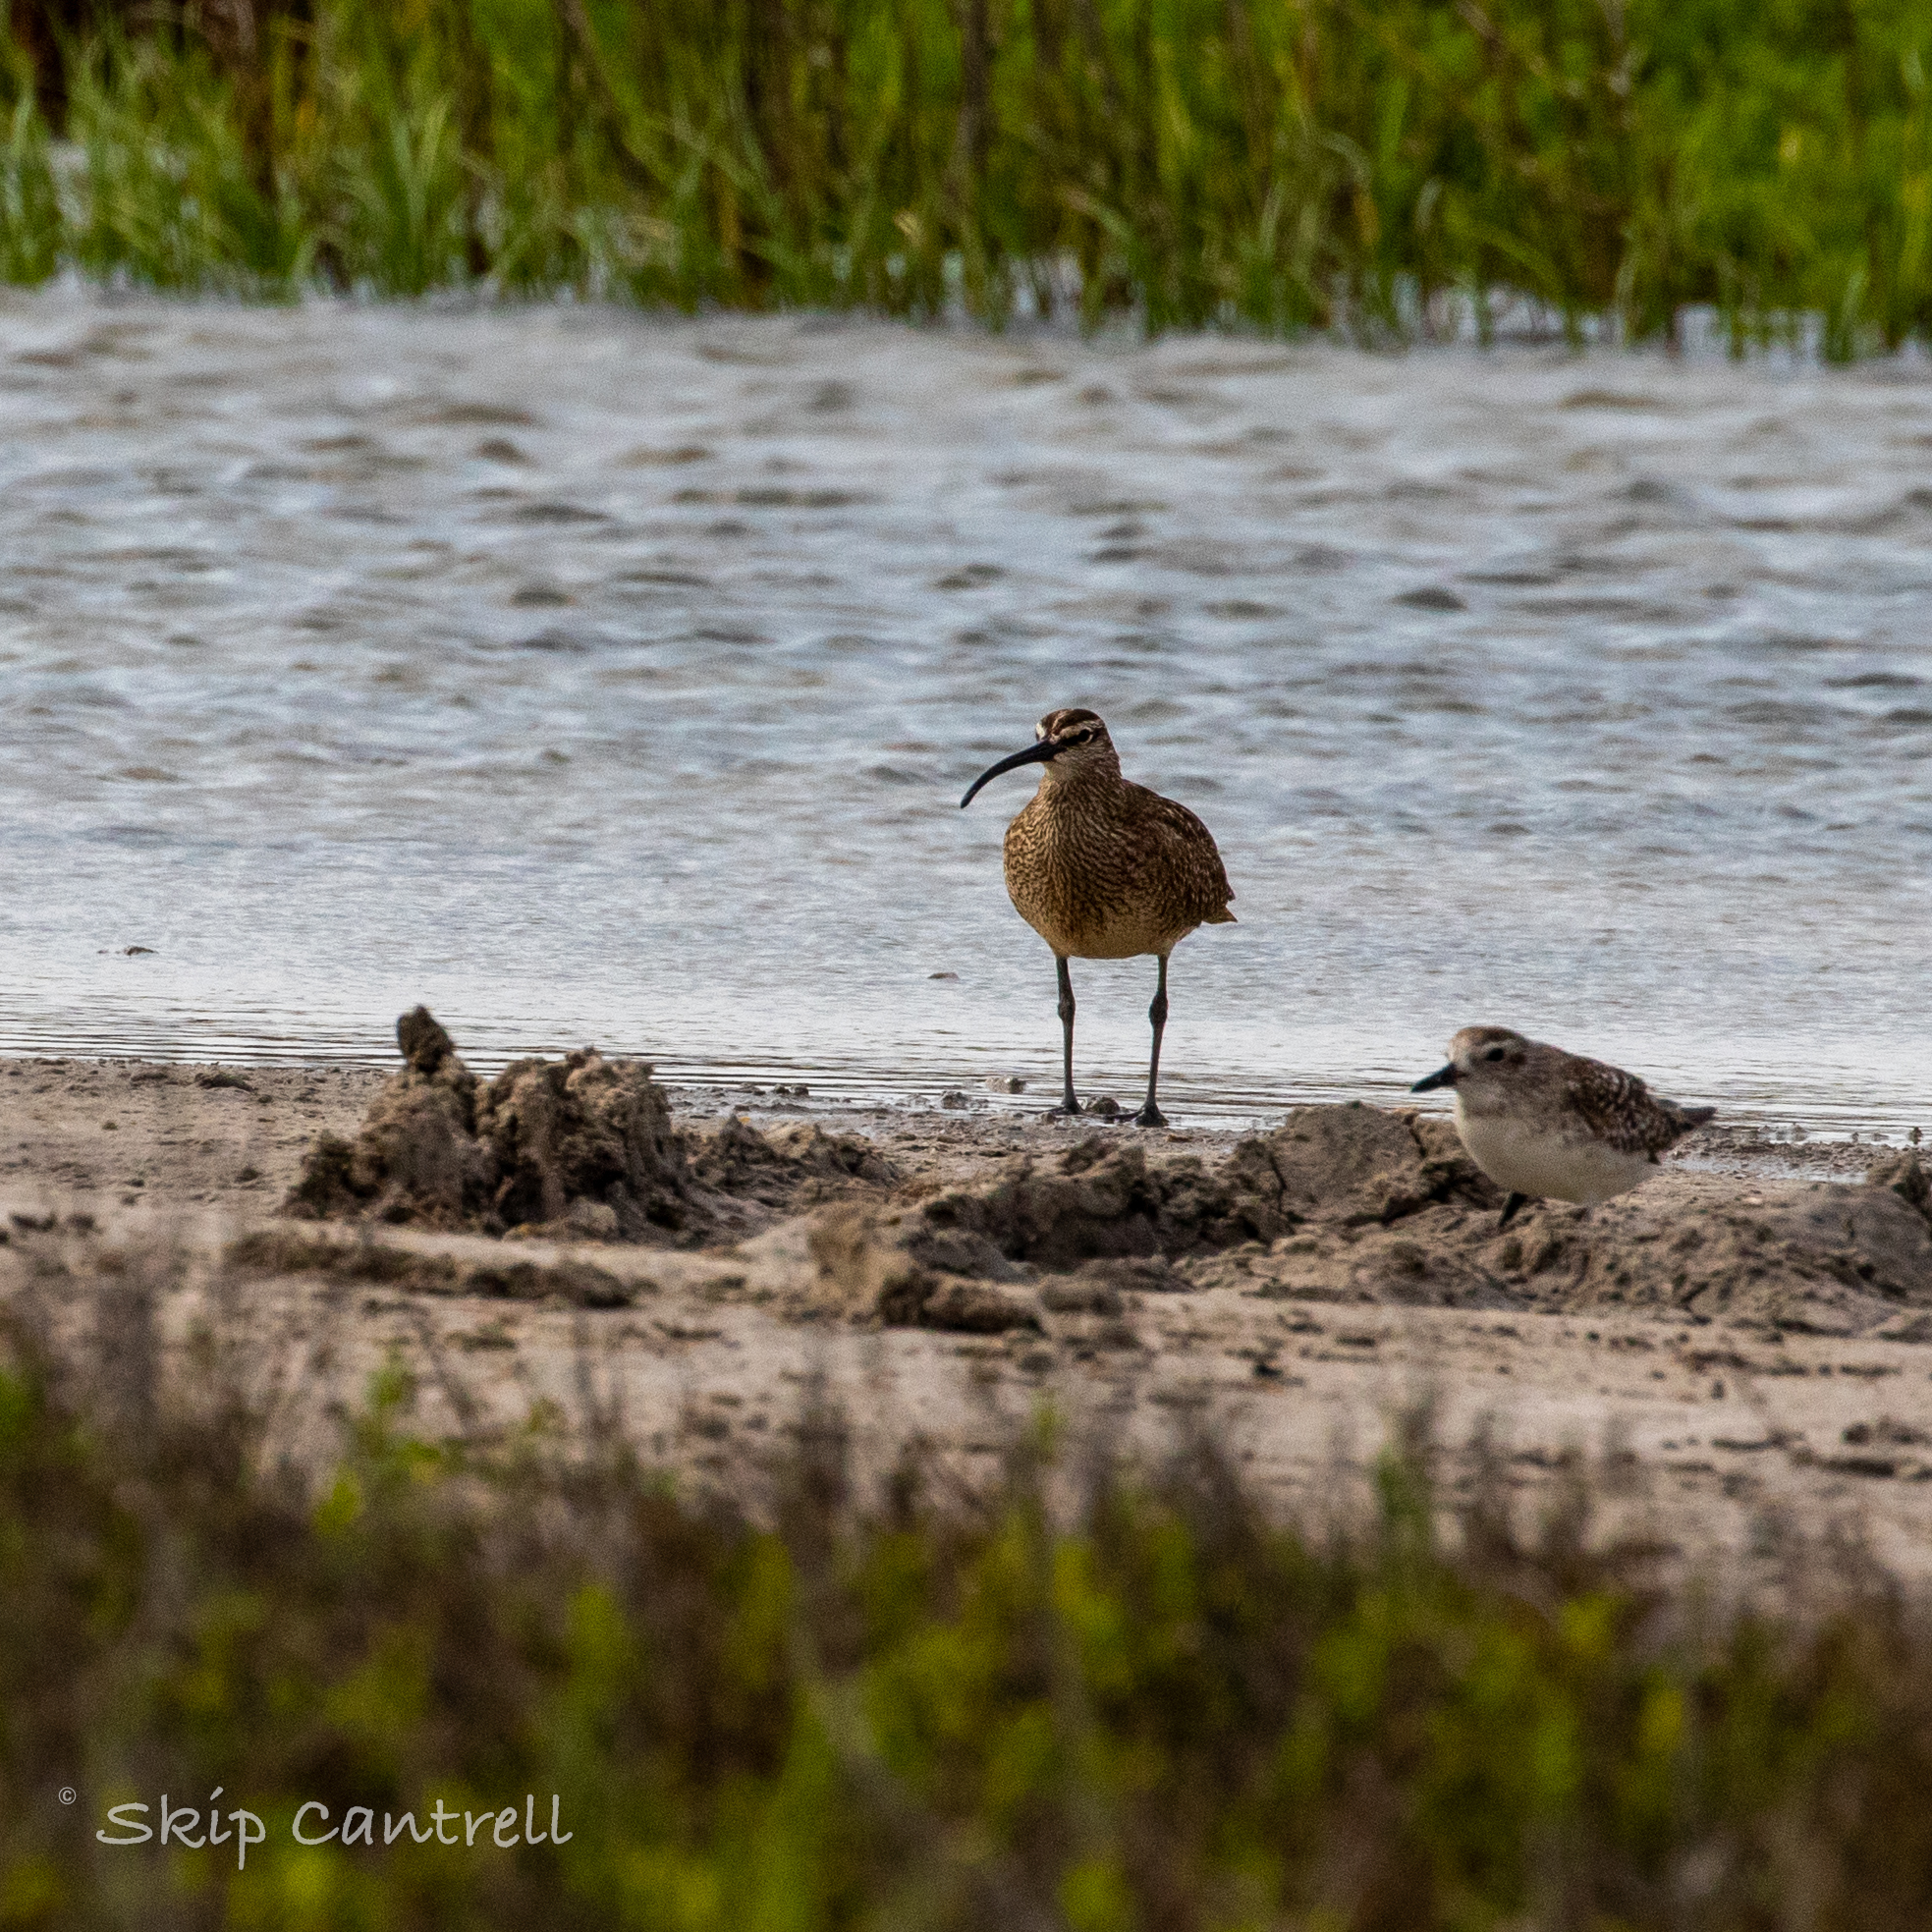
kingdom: Animalia
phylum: Chordata
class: Aves
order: Charadriiformes
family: Scolopacidae
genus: Numenius
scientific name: Numenius phaeopus
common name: Whimbrel
